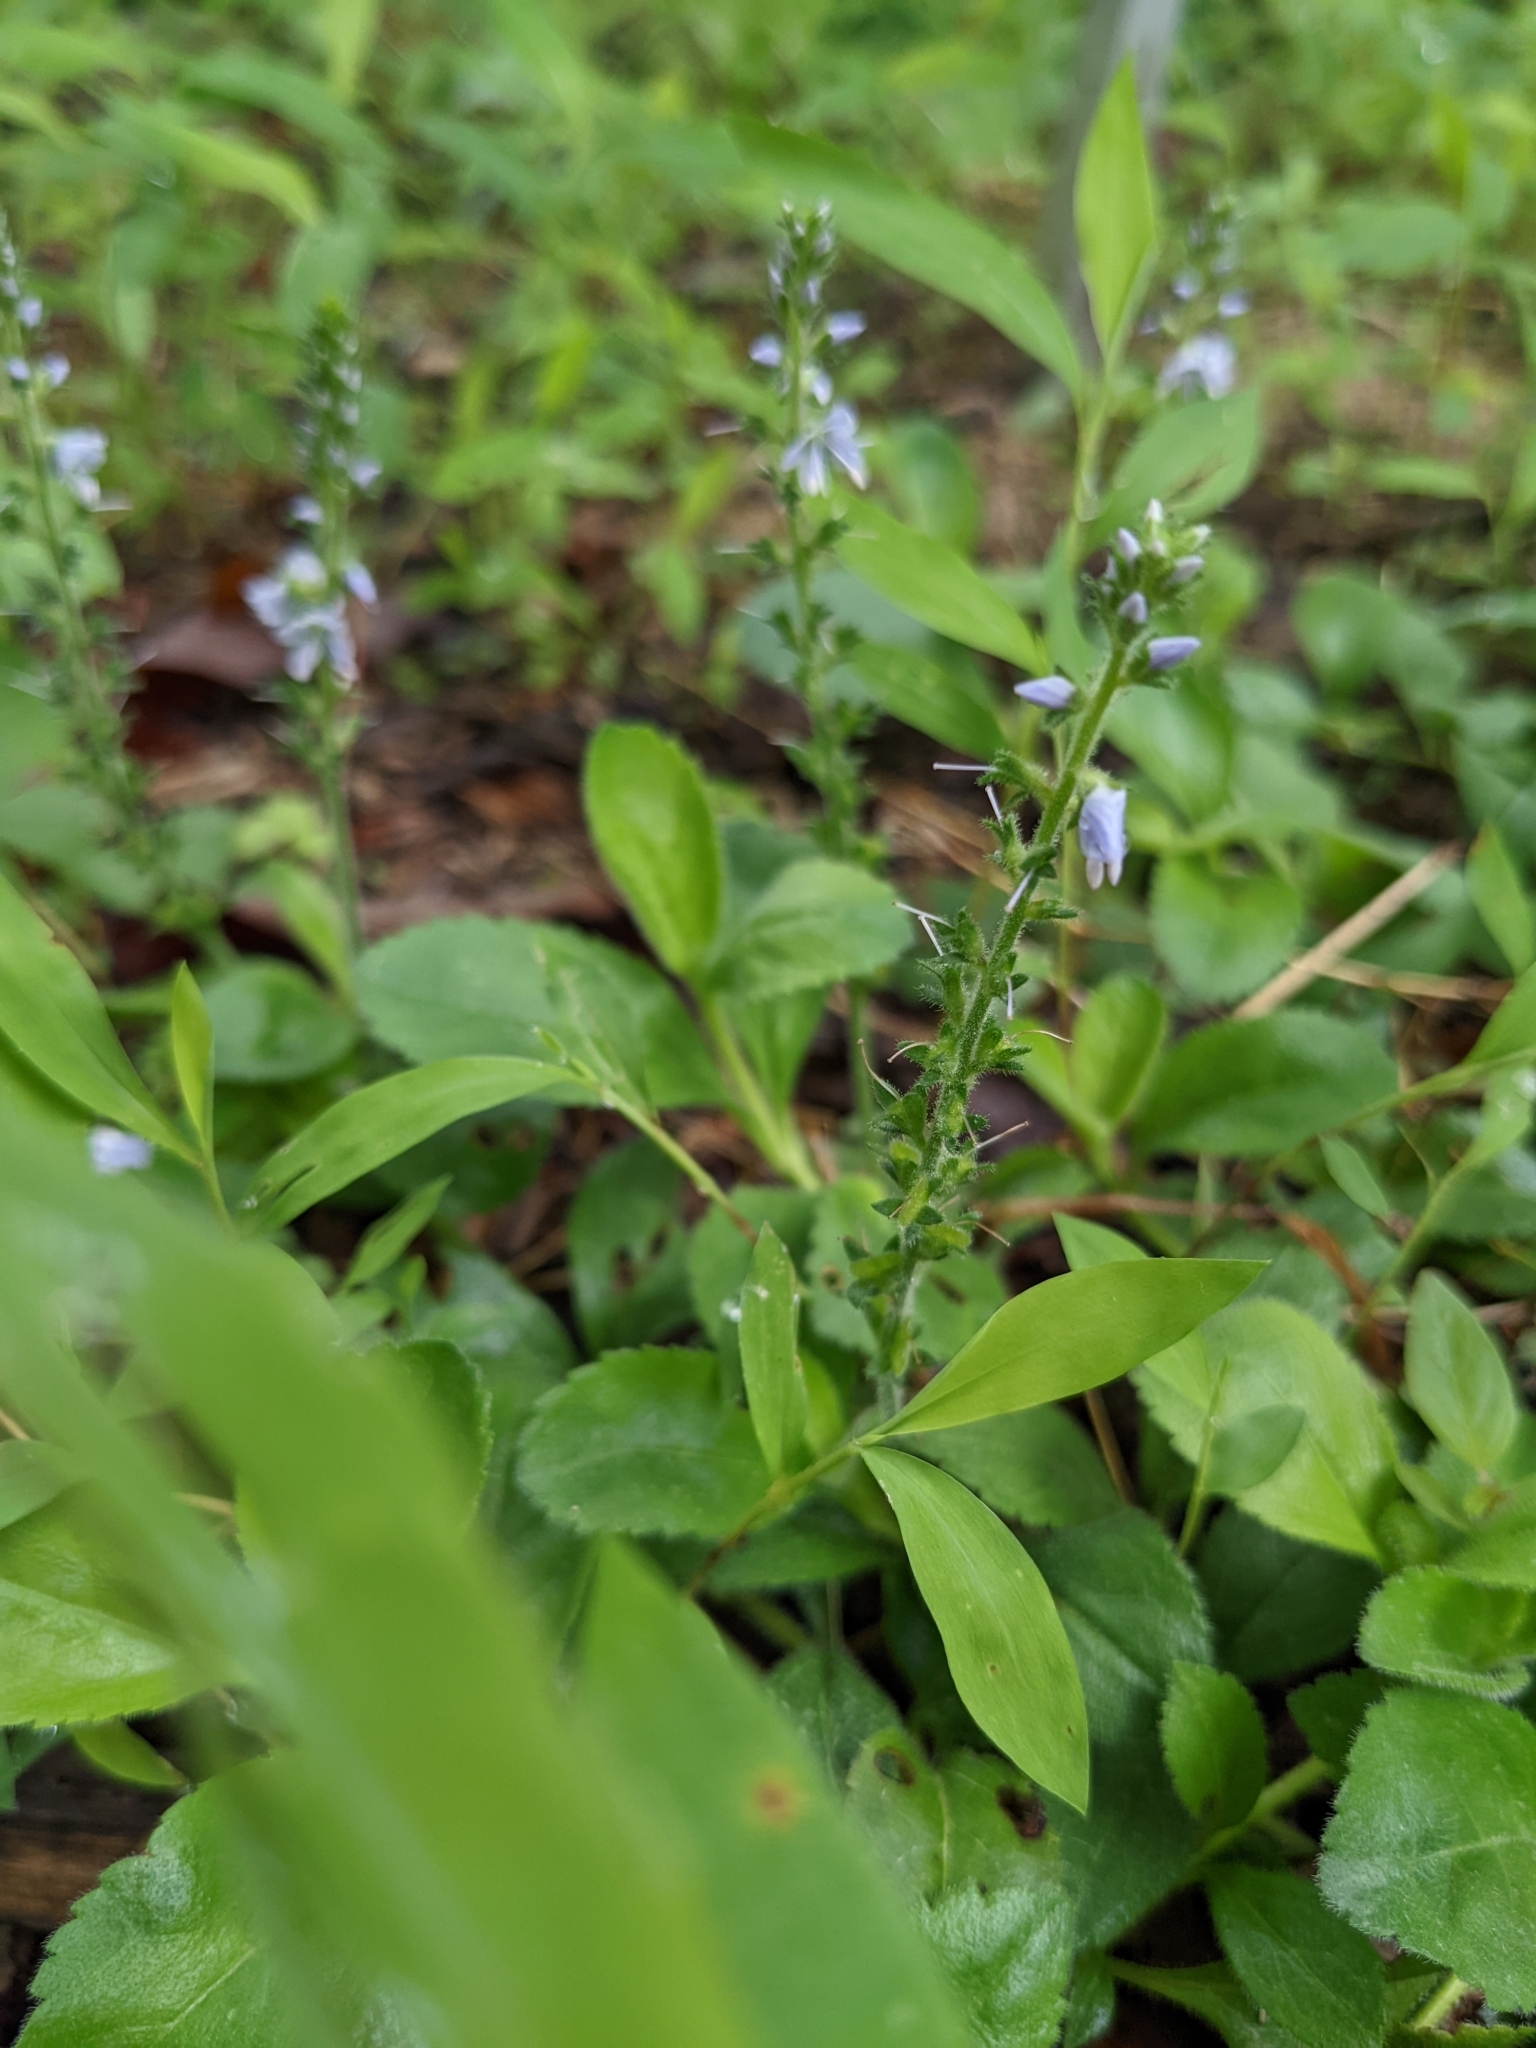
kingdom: Plantae
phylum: Tracheophyta
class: Magnoliopsida
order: Lamiales
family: Plantaginaceae
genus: Veronica
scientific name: Veronica officinalis
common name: Common speedwell
